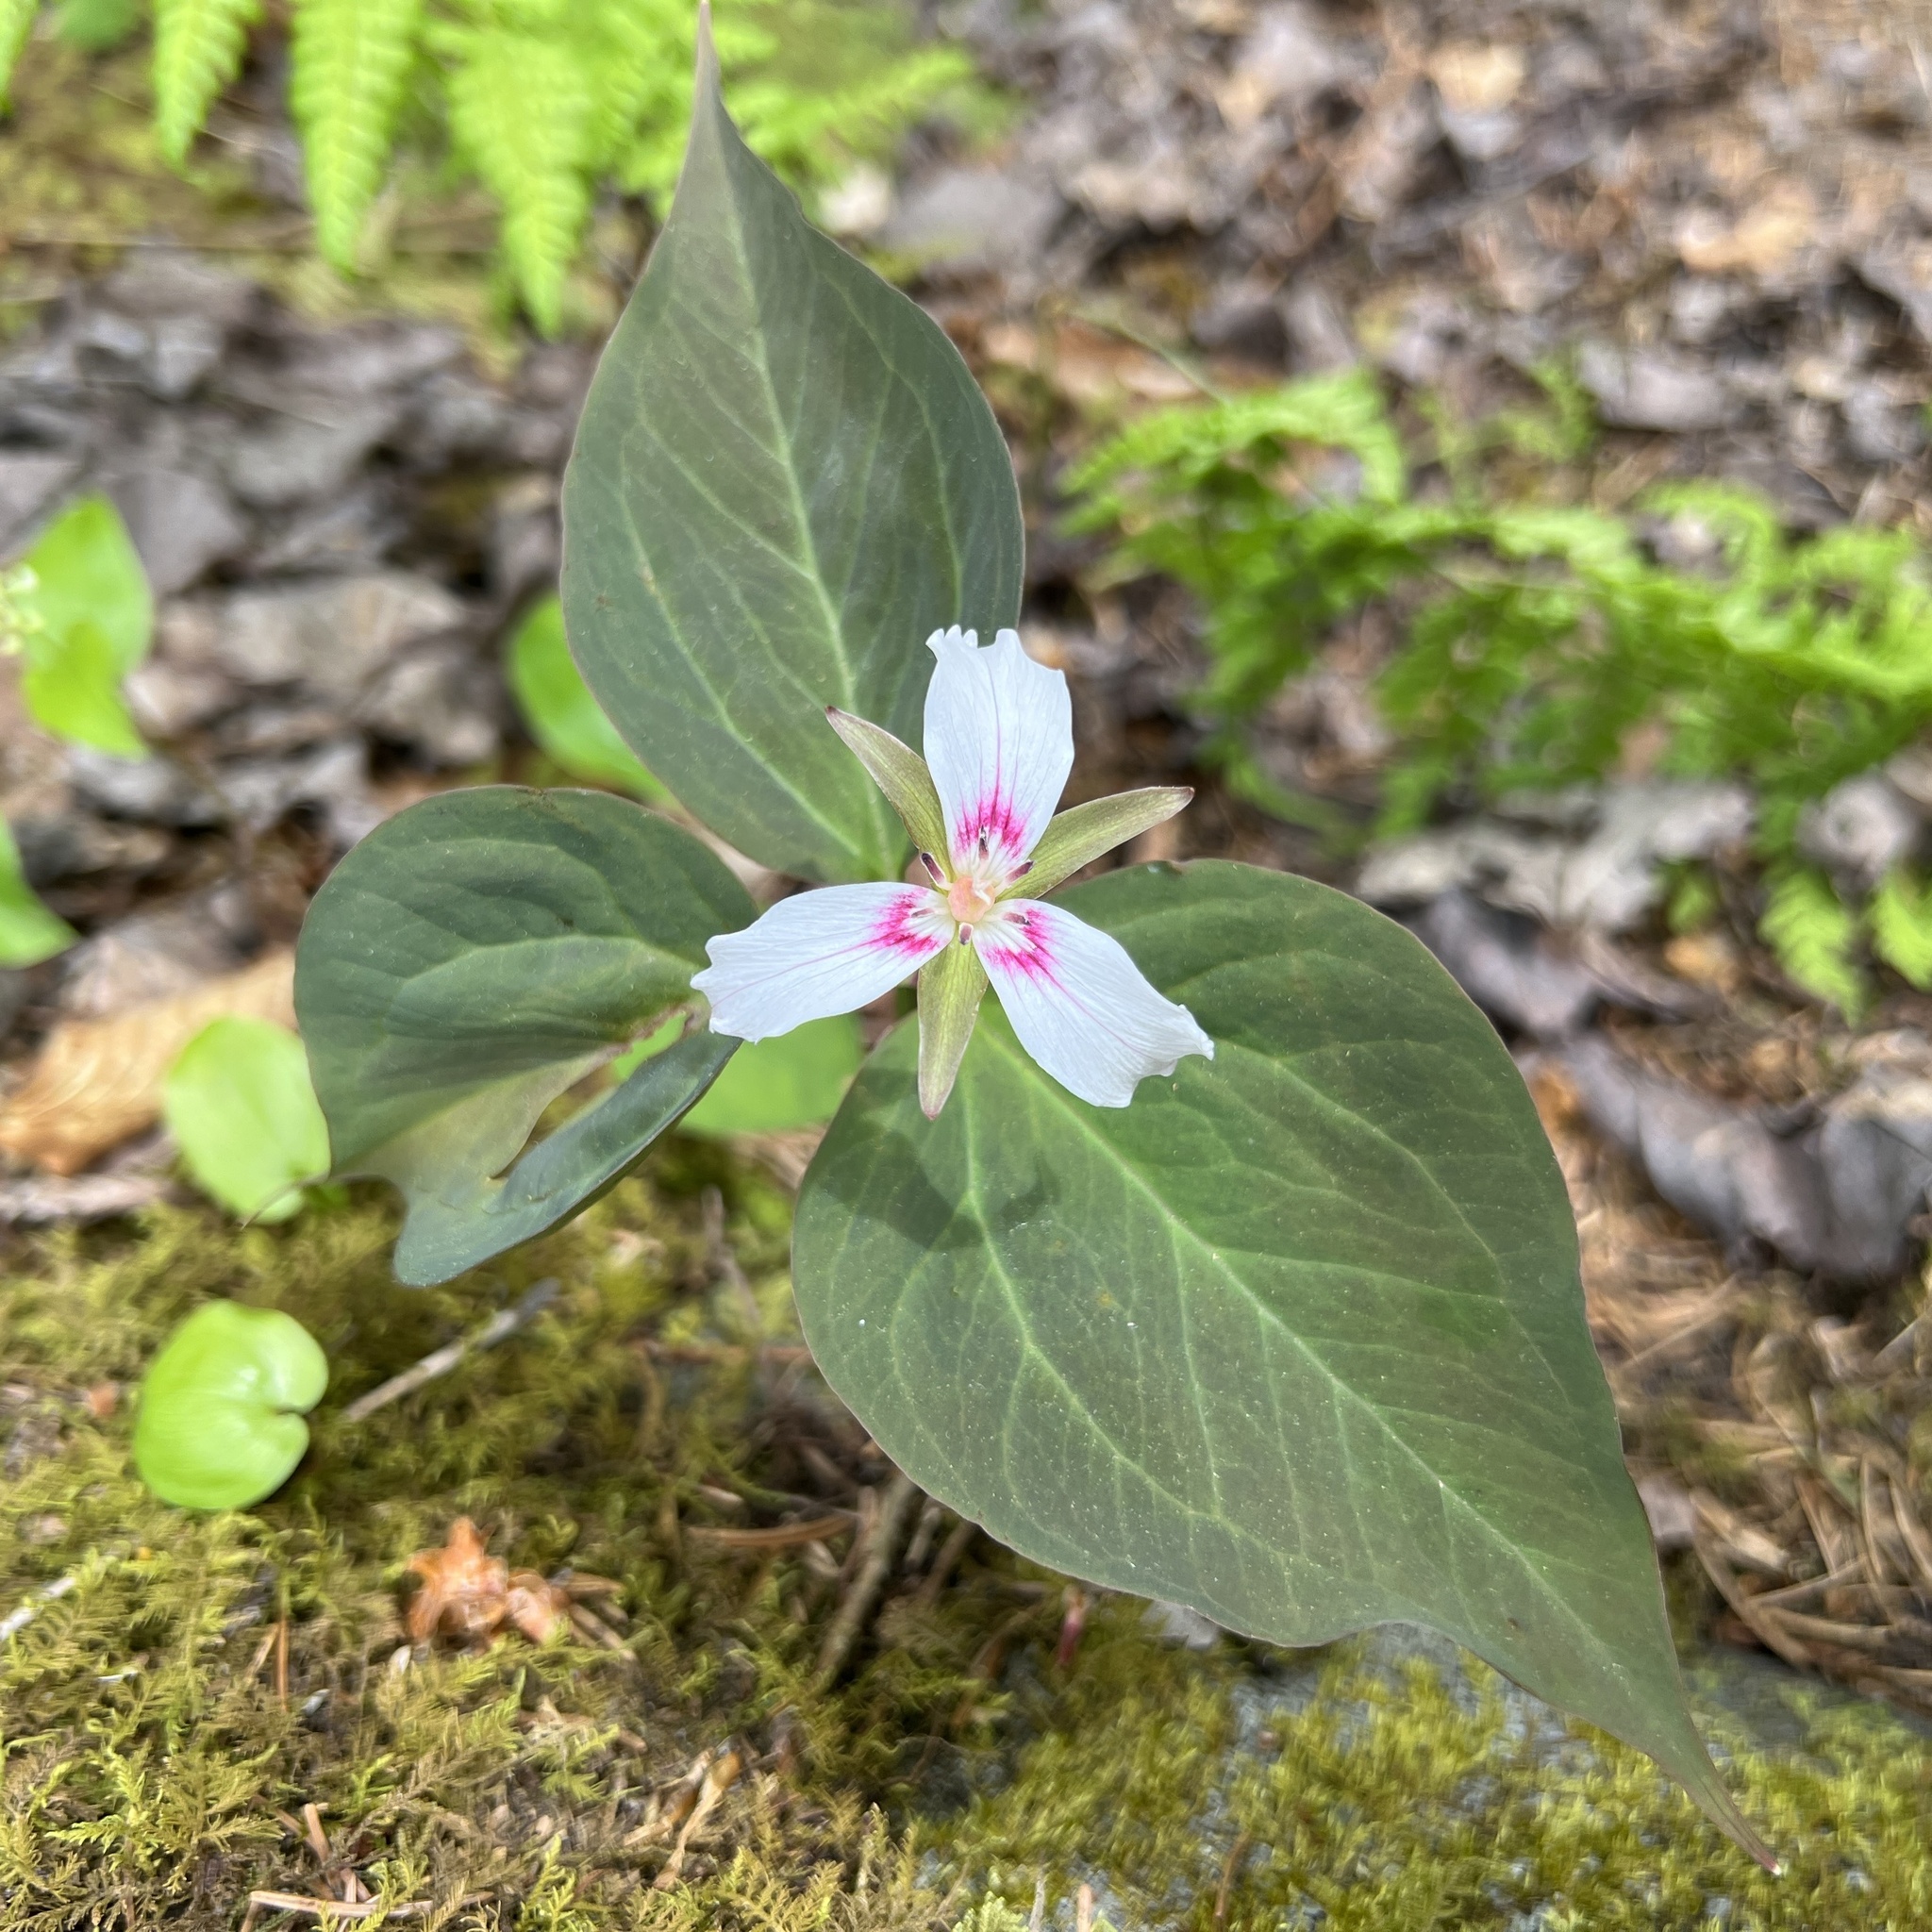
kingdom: Plantae
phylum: Tracheophyta
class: Liliopsida
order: Liliales
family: Melanthiaceae
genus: Trillium
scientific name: Trillium undulatum
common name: Paint trillium
